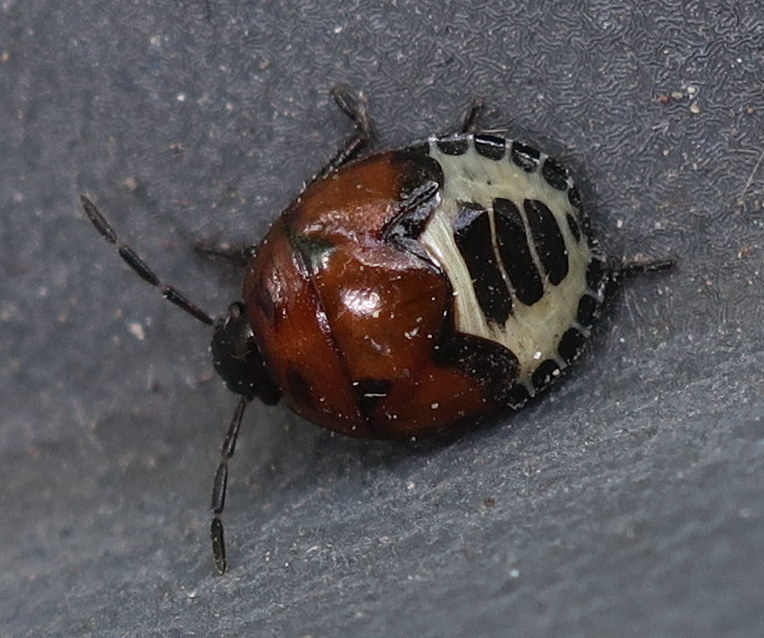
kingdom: Animalia
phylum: Arthropoda
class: Insecta
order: Hemiptera
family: Cydnidae
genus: Tritomegas
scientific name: Tritomegas sexmaculatus
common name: Rambur's pied shieldbug
